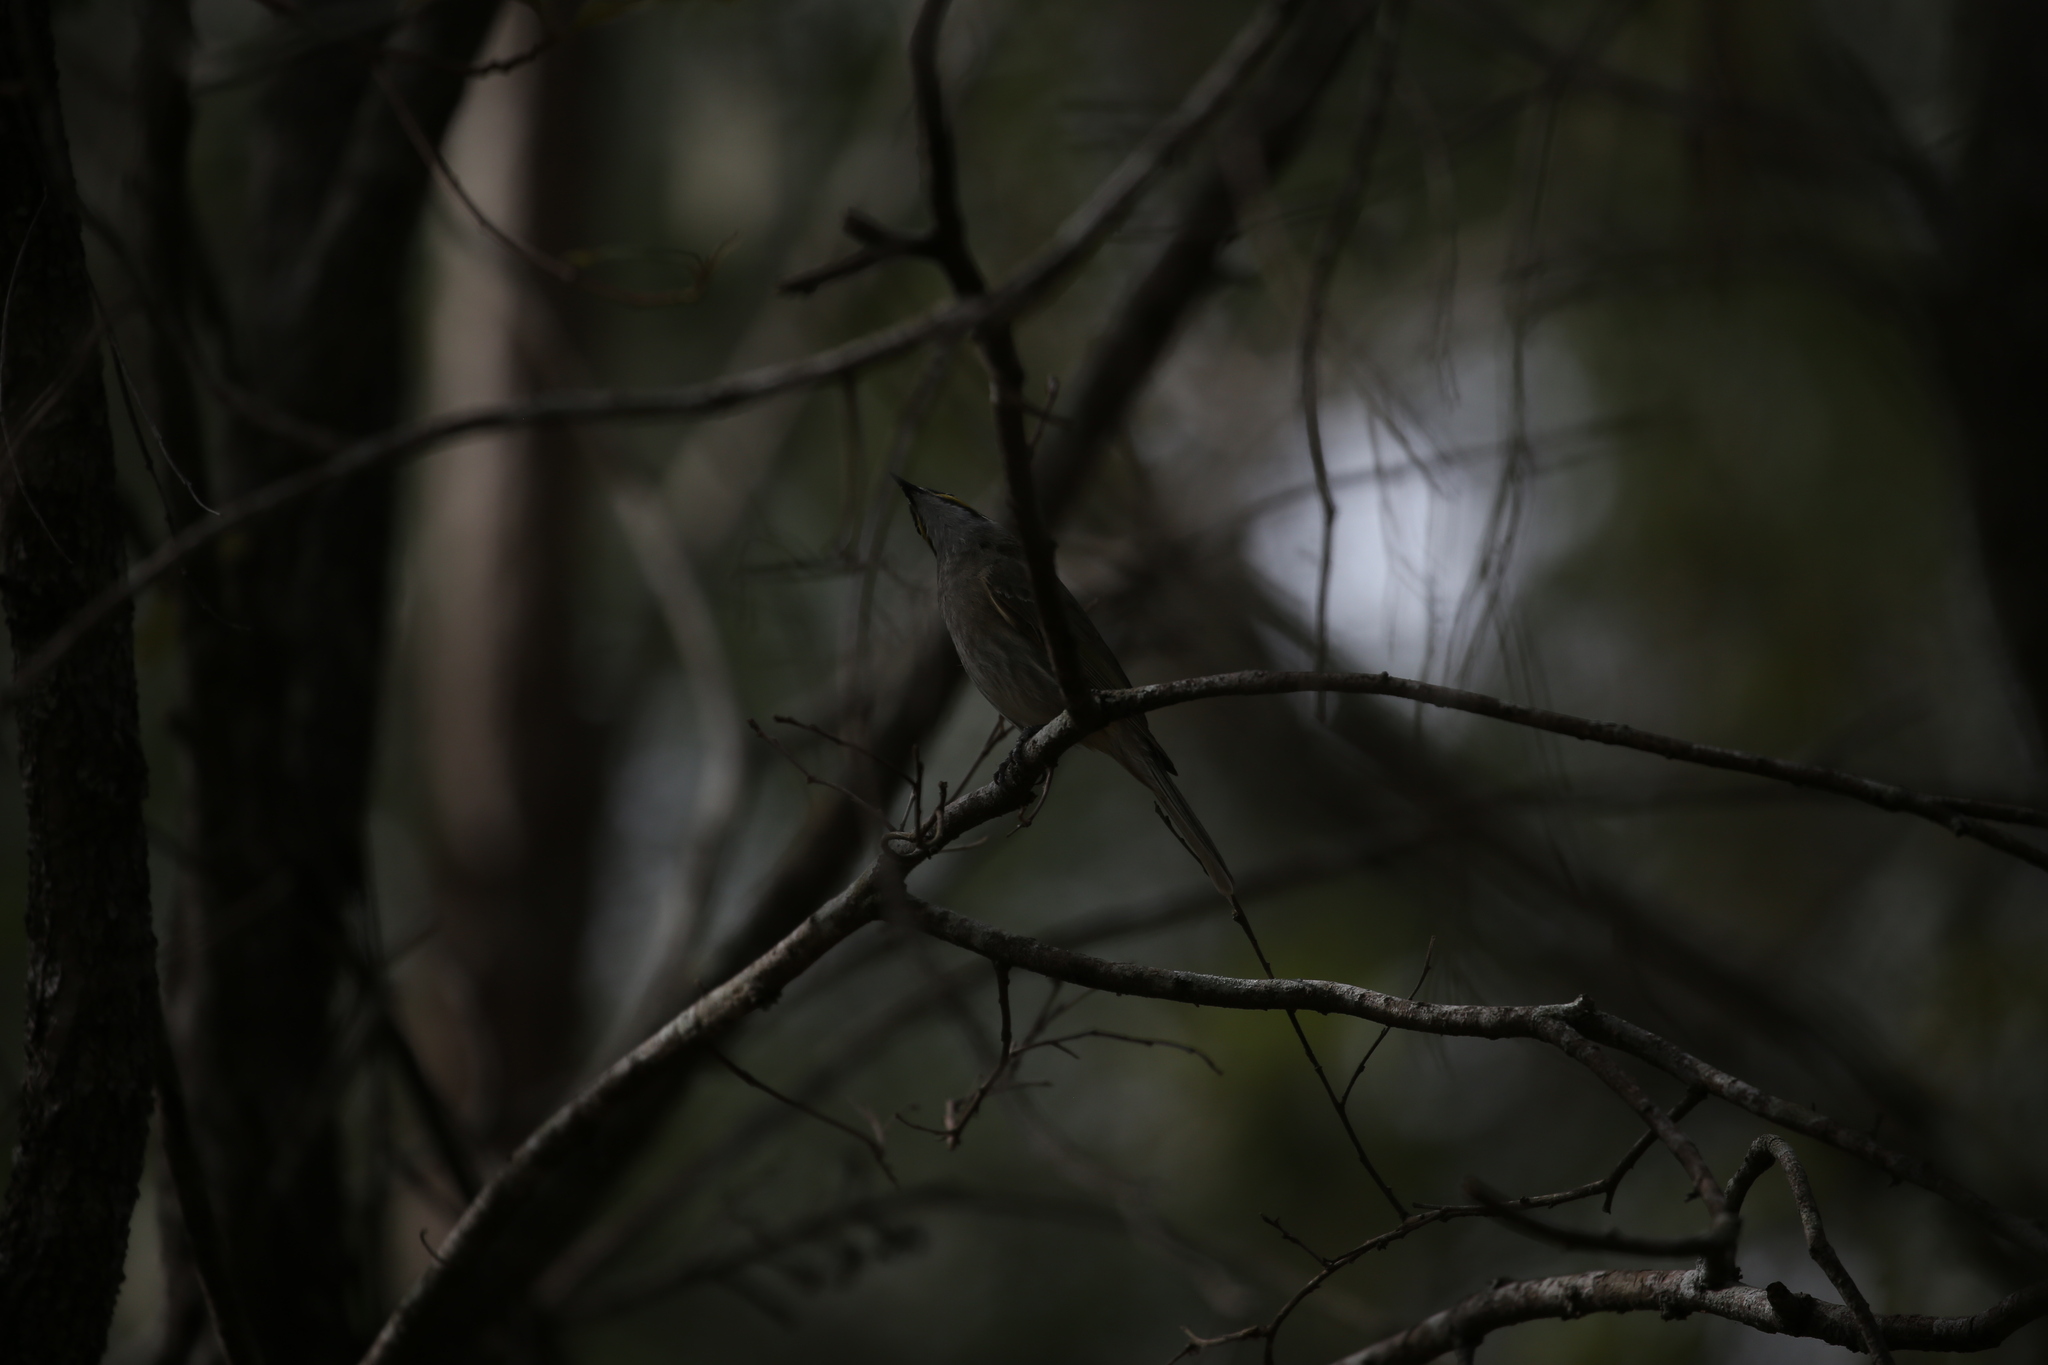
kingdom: Animalia
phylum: Chordata
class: Aves
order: Passeriformes
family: Meliphagidae
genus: Caligavis
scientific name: Caligavis chrysops
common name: Yellow-faced honeyeater
